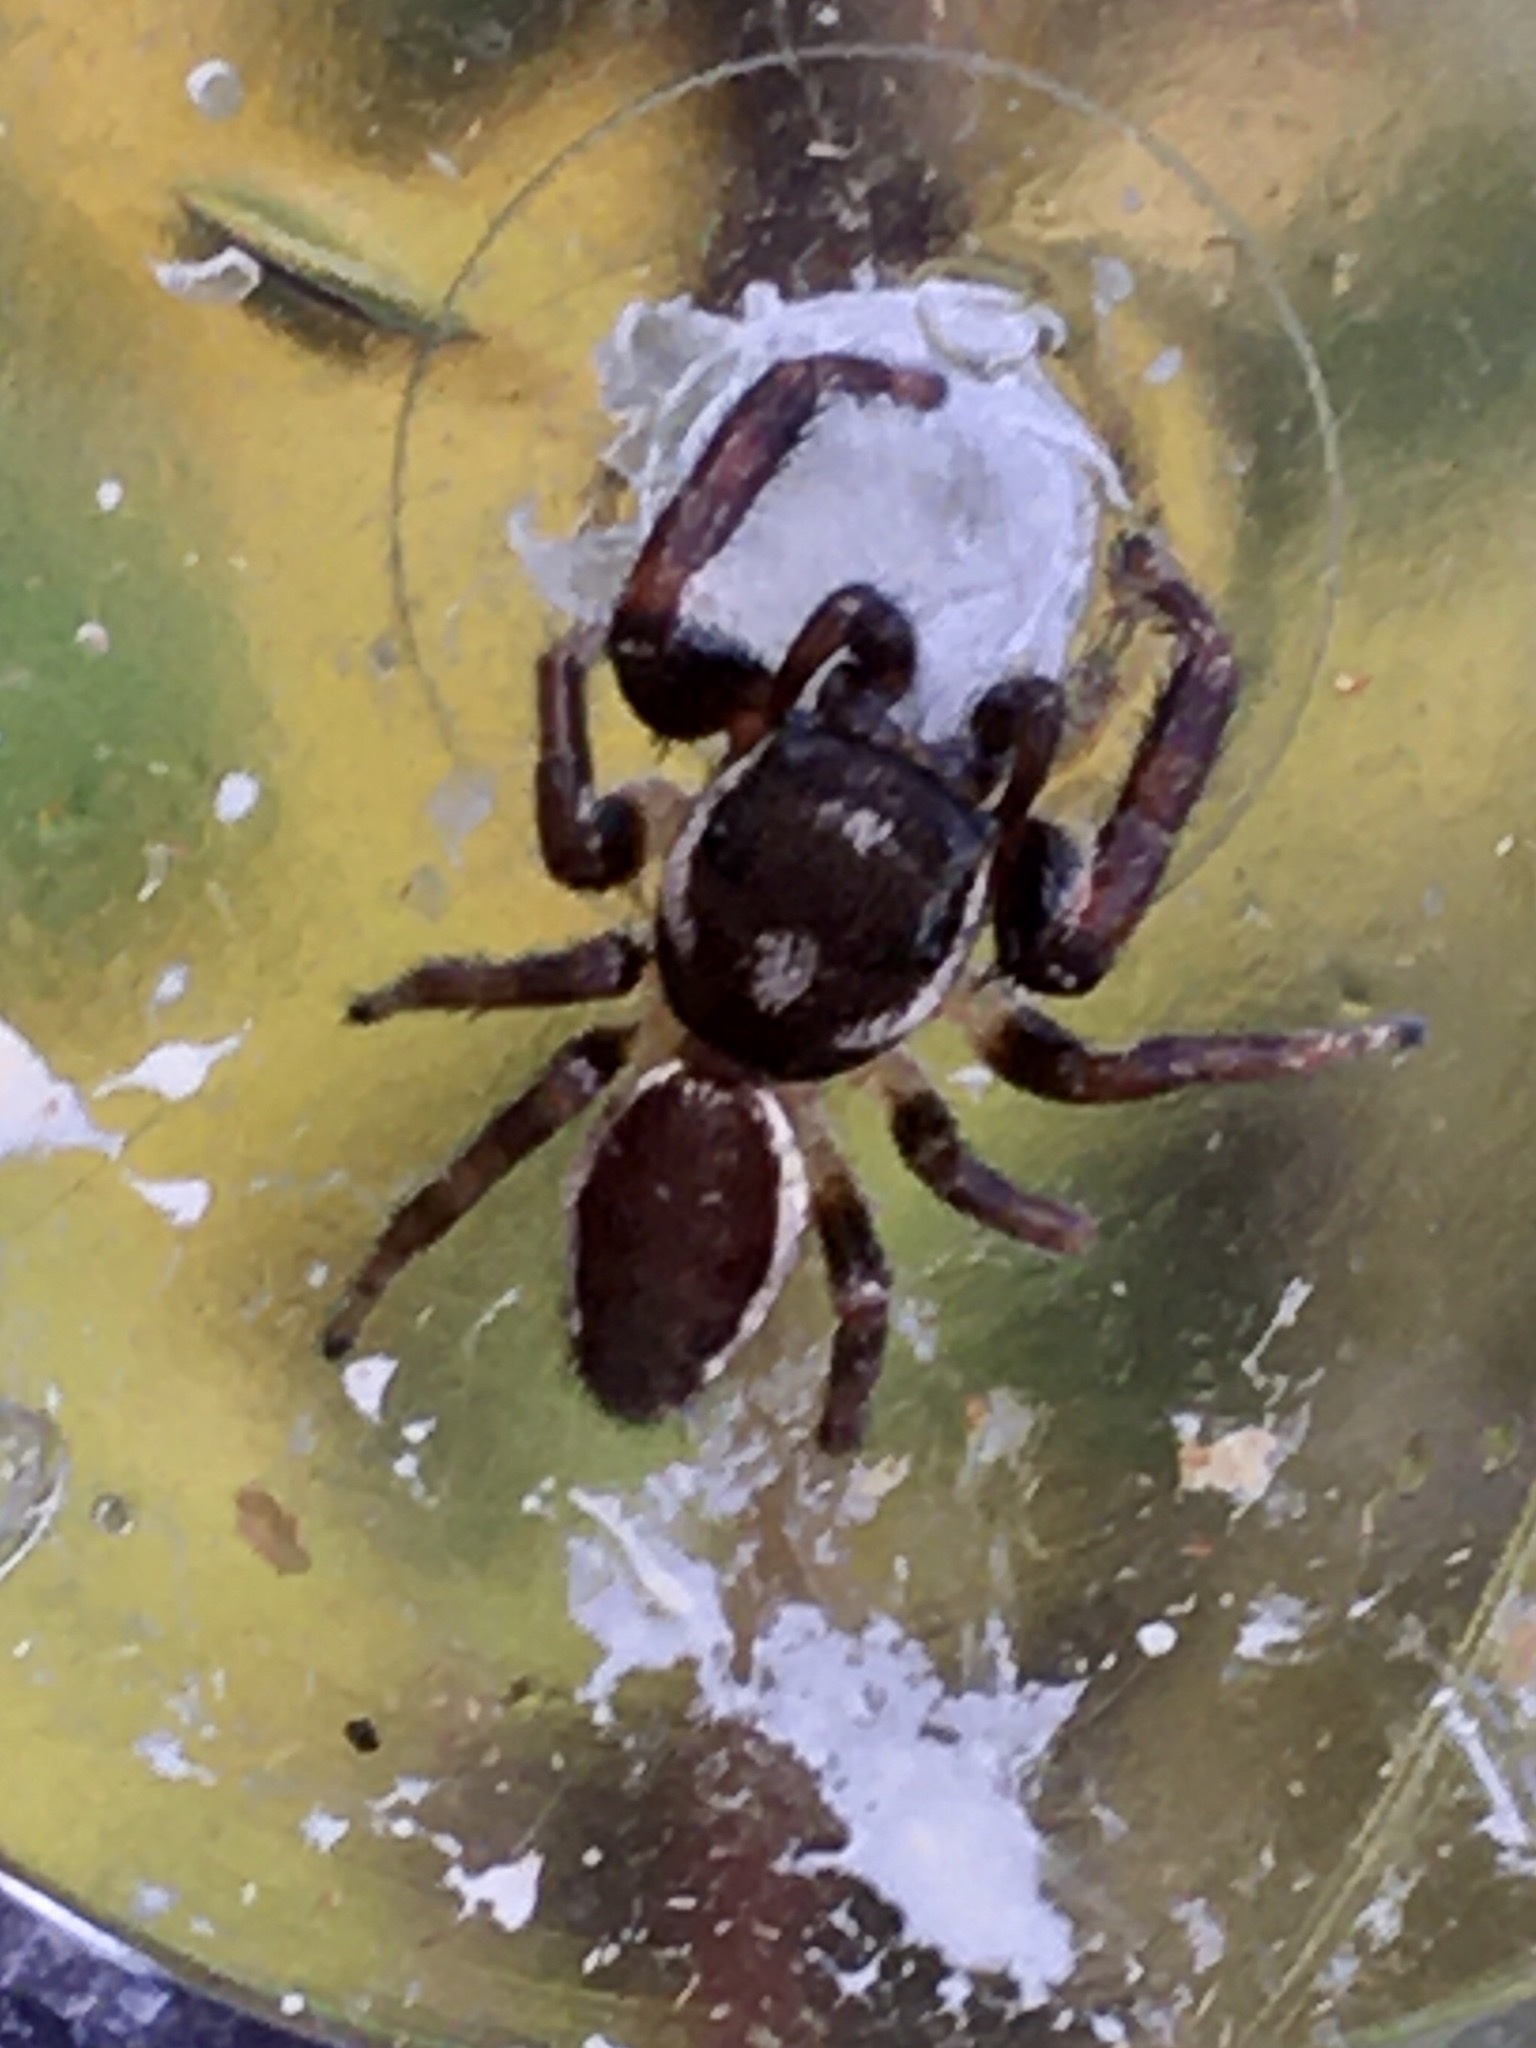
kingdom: Animalia
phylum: Arthropoda
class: Arachnida
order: Araneae
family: Salticidae
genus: Eris
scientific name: Eris militaris
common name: Bronze jumper
